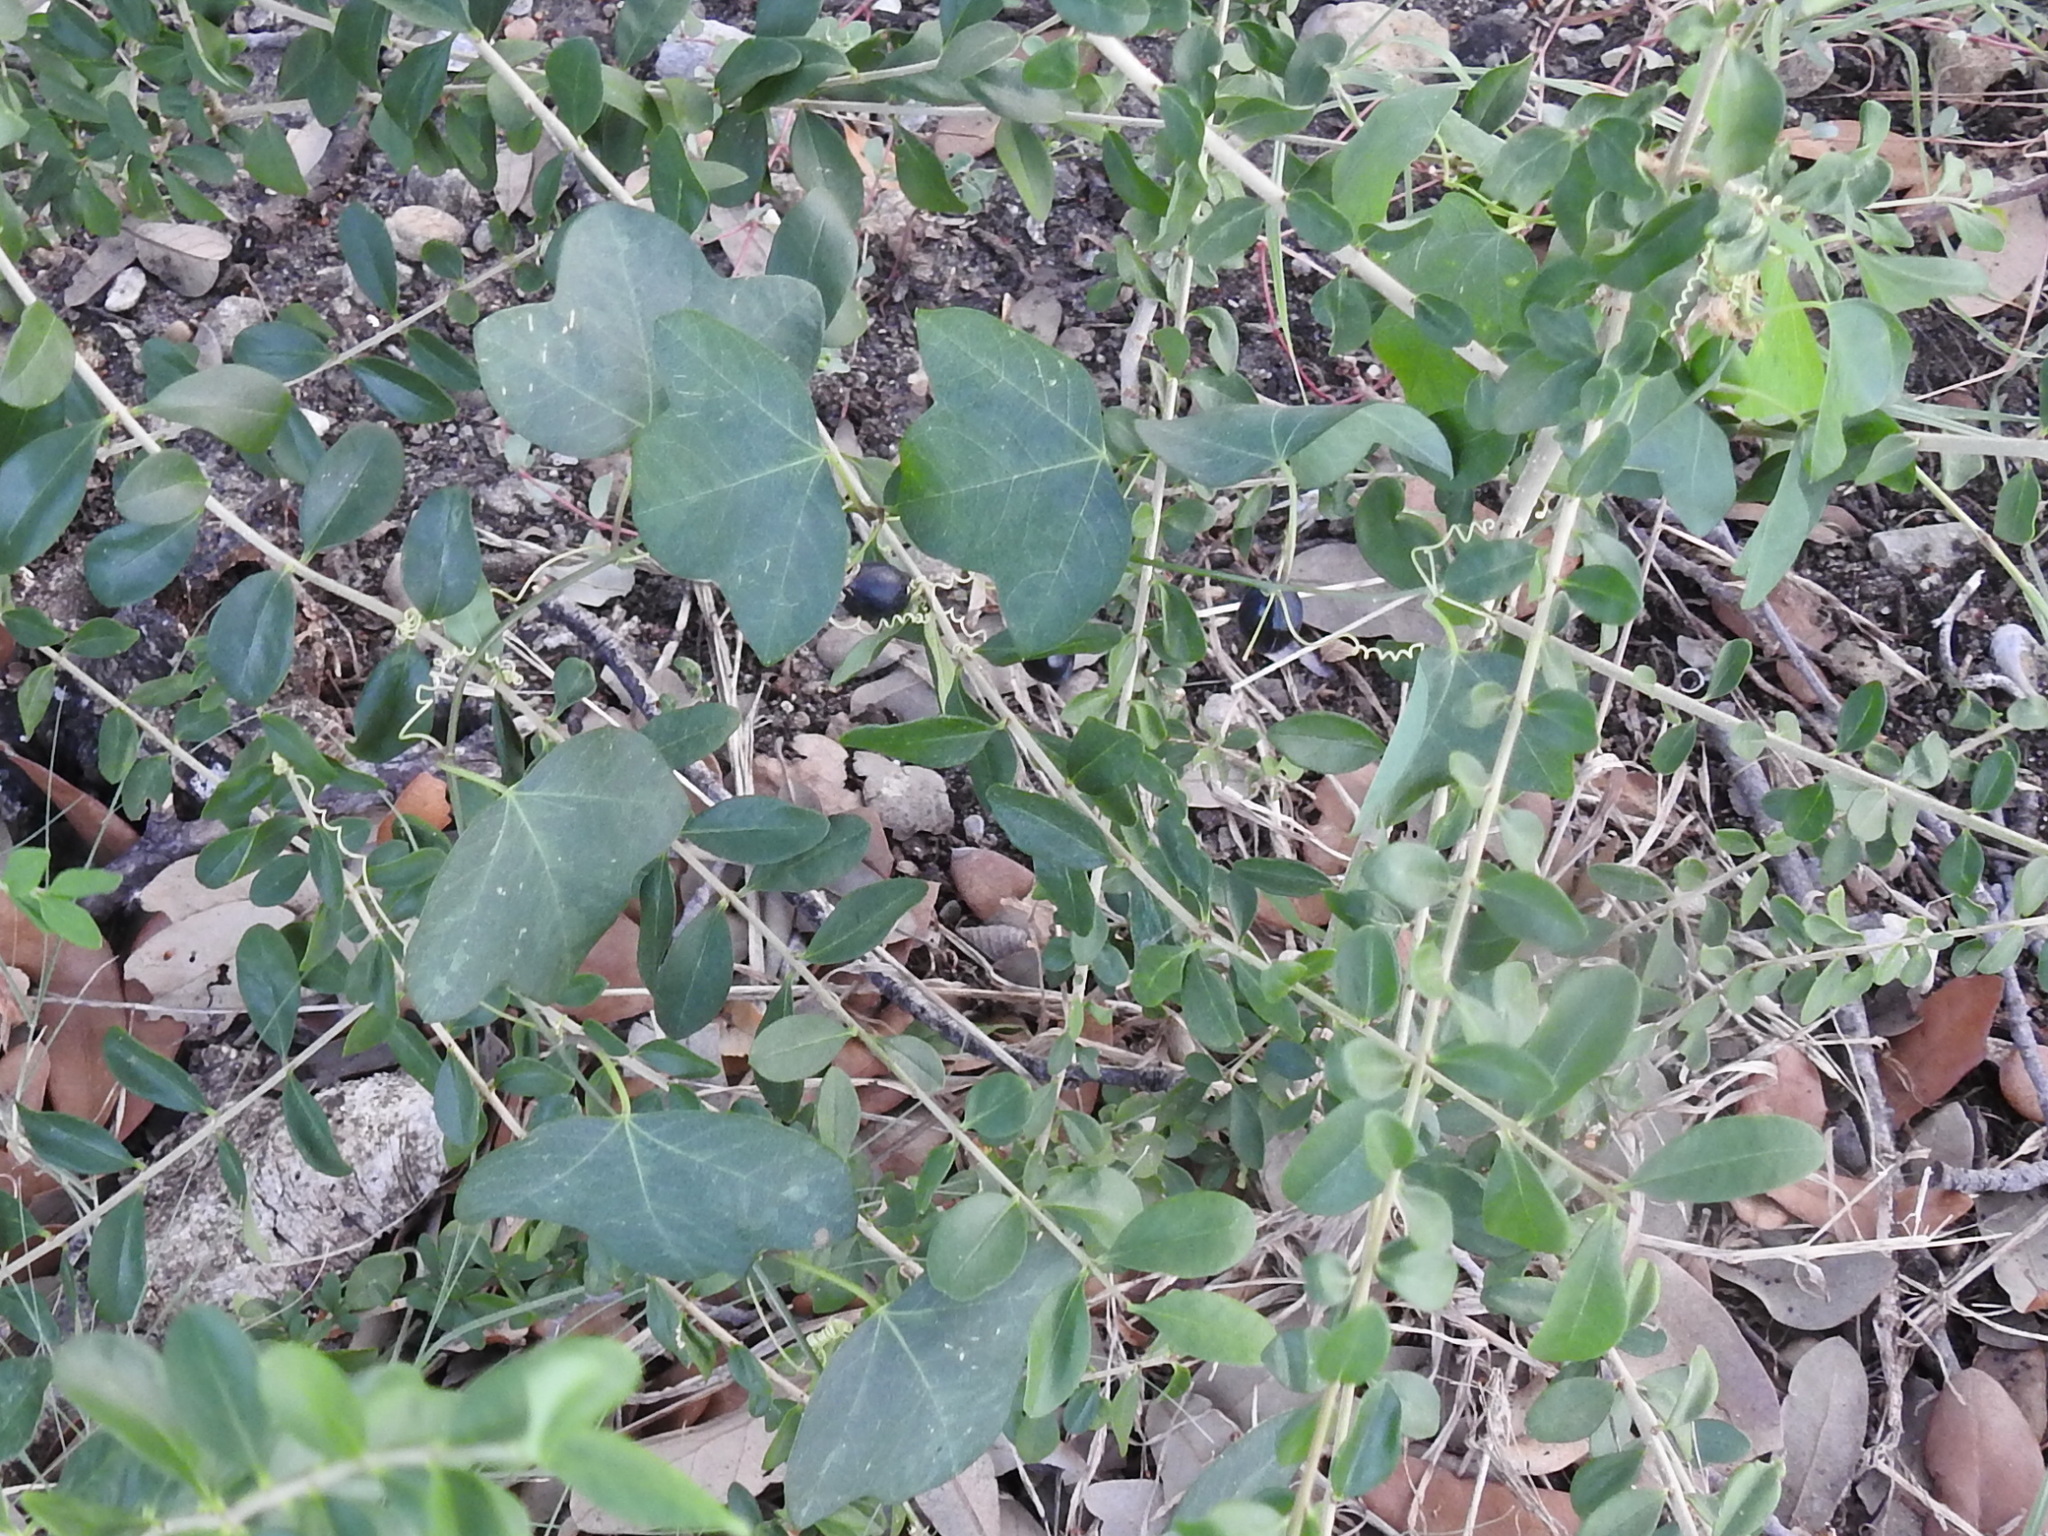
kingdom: Plantae
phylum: Tracheophyta
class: Magnoliopsida
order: Malpighiales
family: Passifloraceae
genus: Passiflora
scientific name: Passiflora lutea
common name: Yellow passionflower
